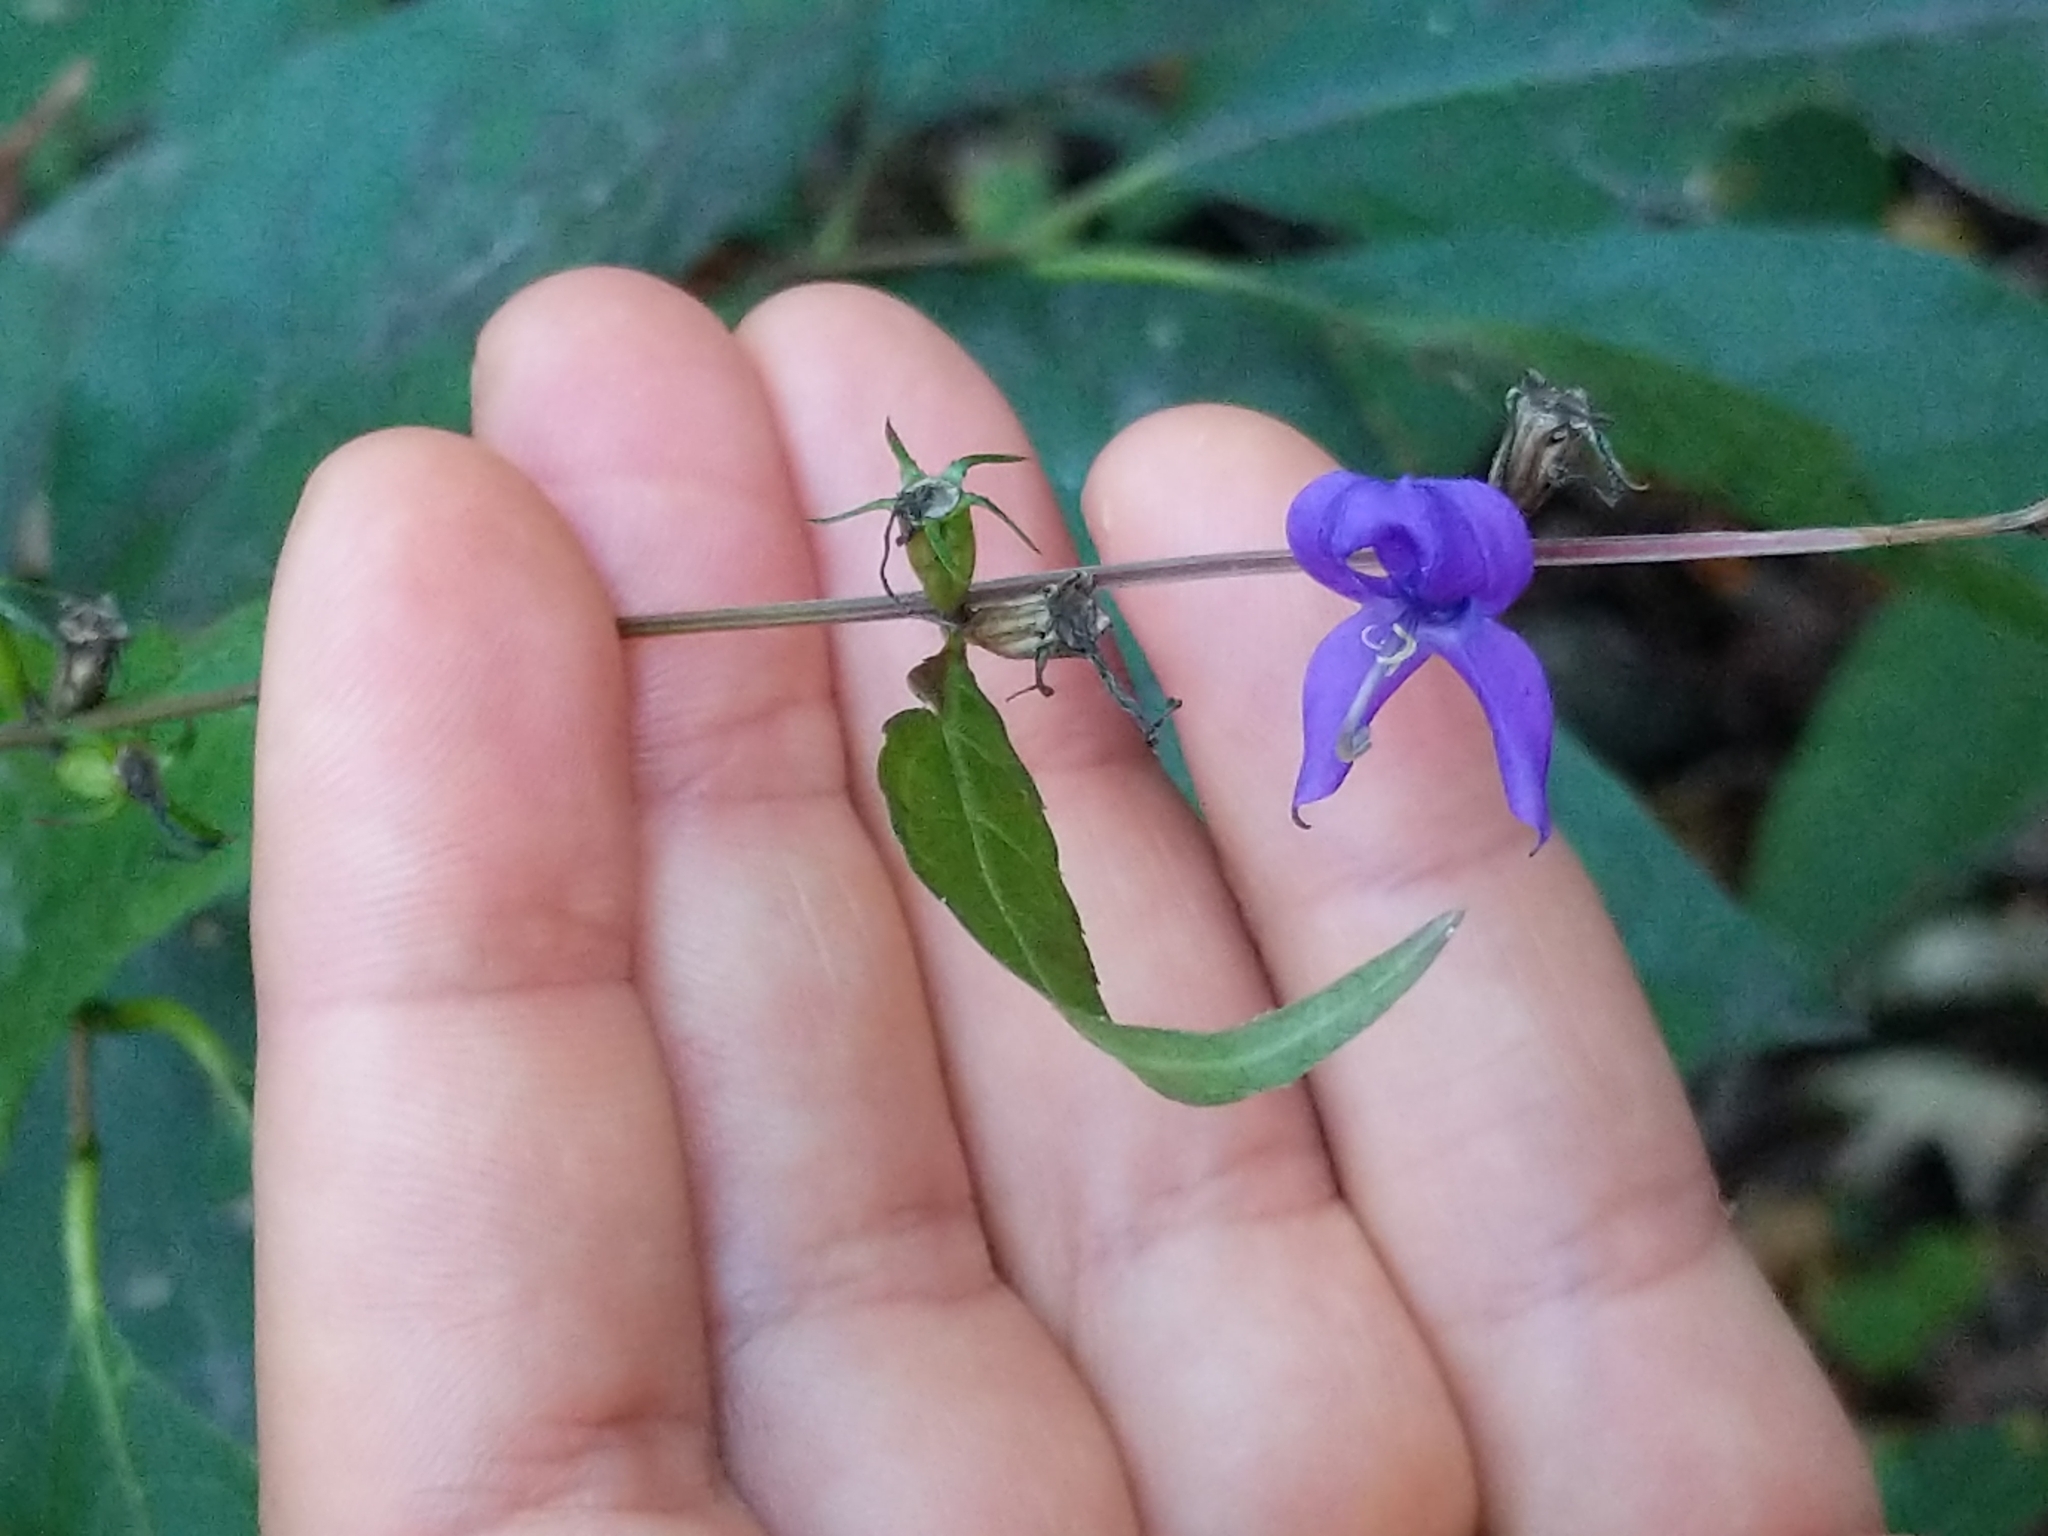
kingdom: Plantae
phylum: Tracheophyta
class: Magnoliopsida
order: Asterales
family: Campanulaceae
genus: Campanulastrum
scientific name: Campanulastrum americanum
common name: American bellflower
